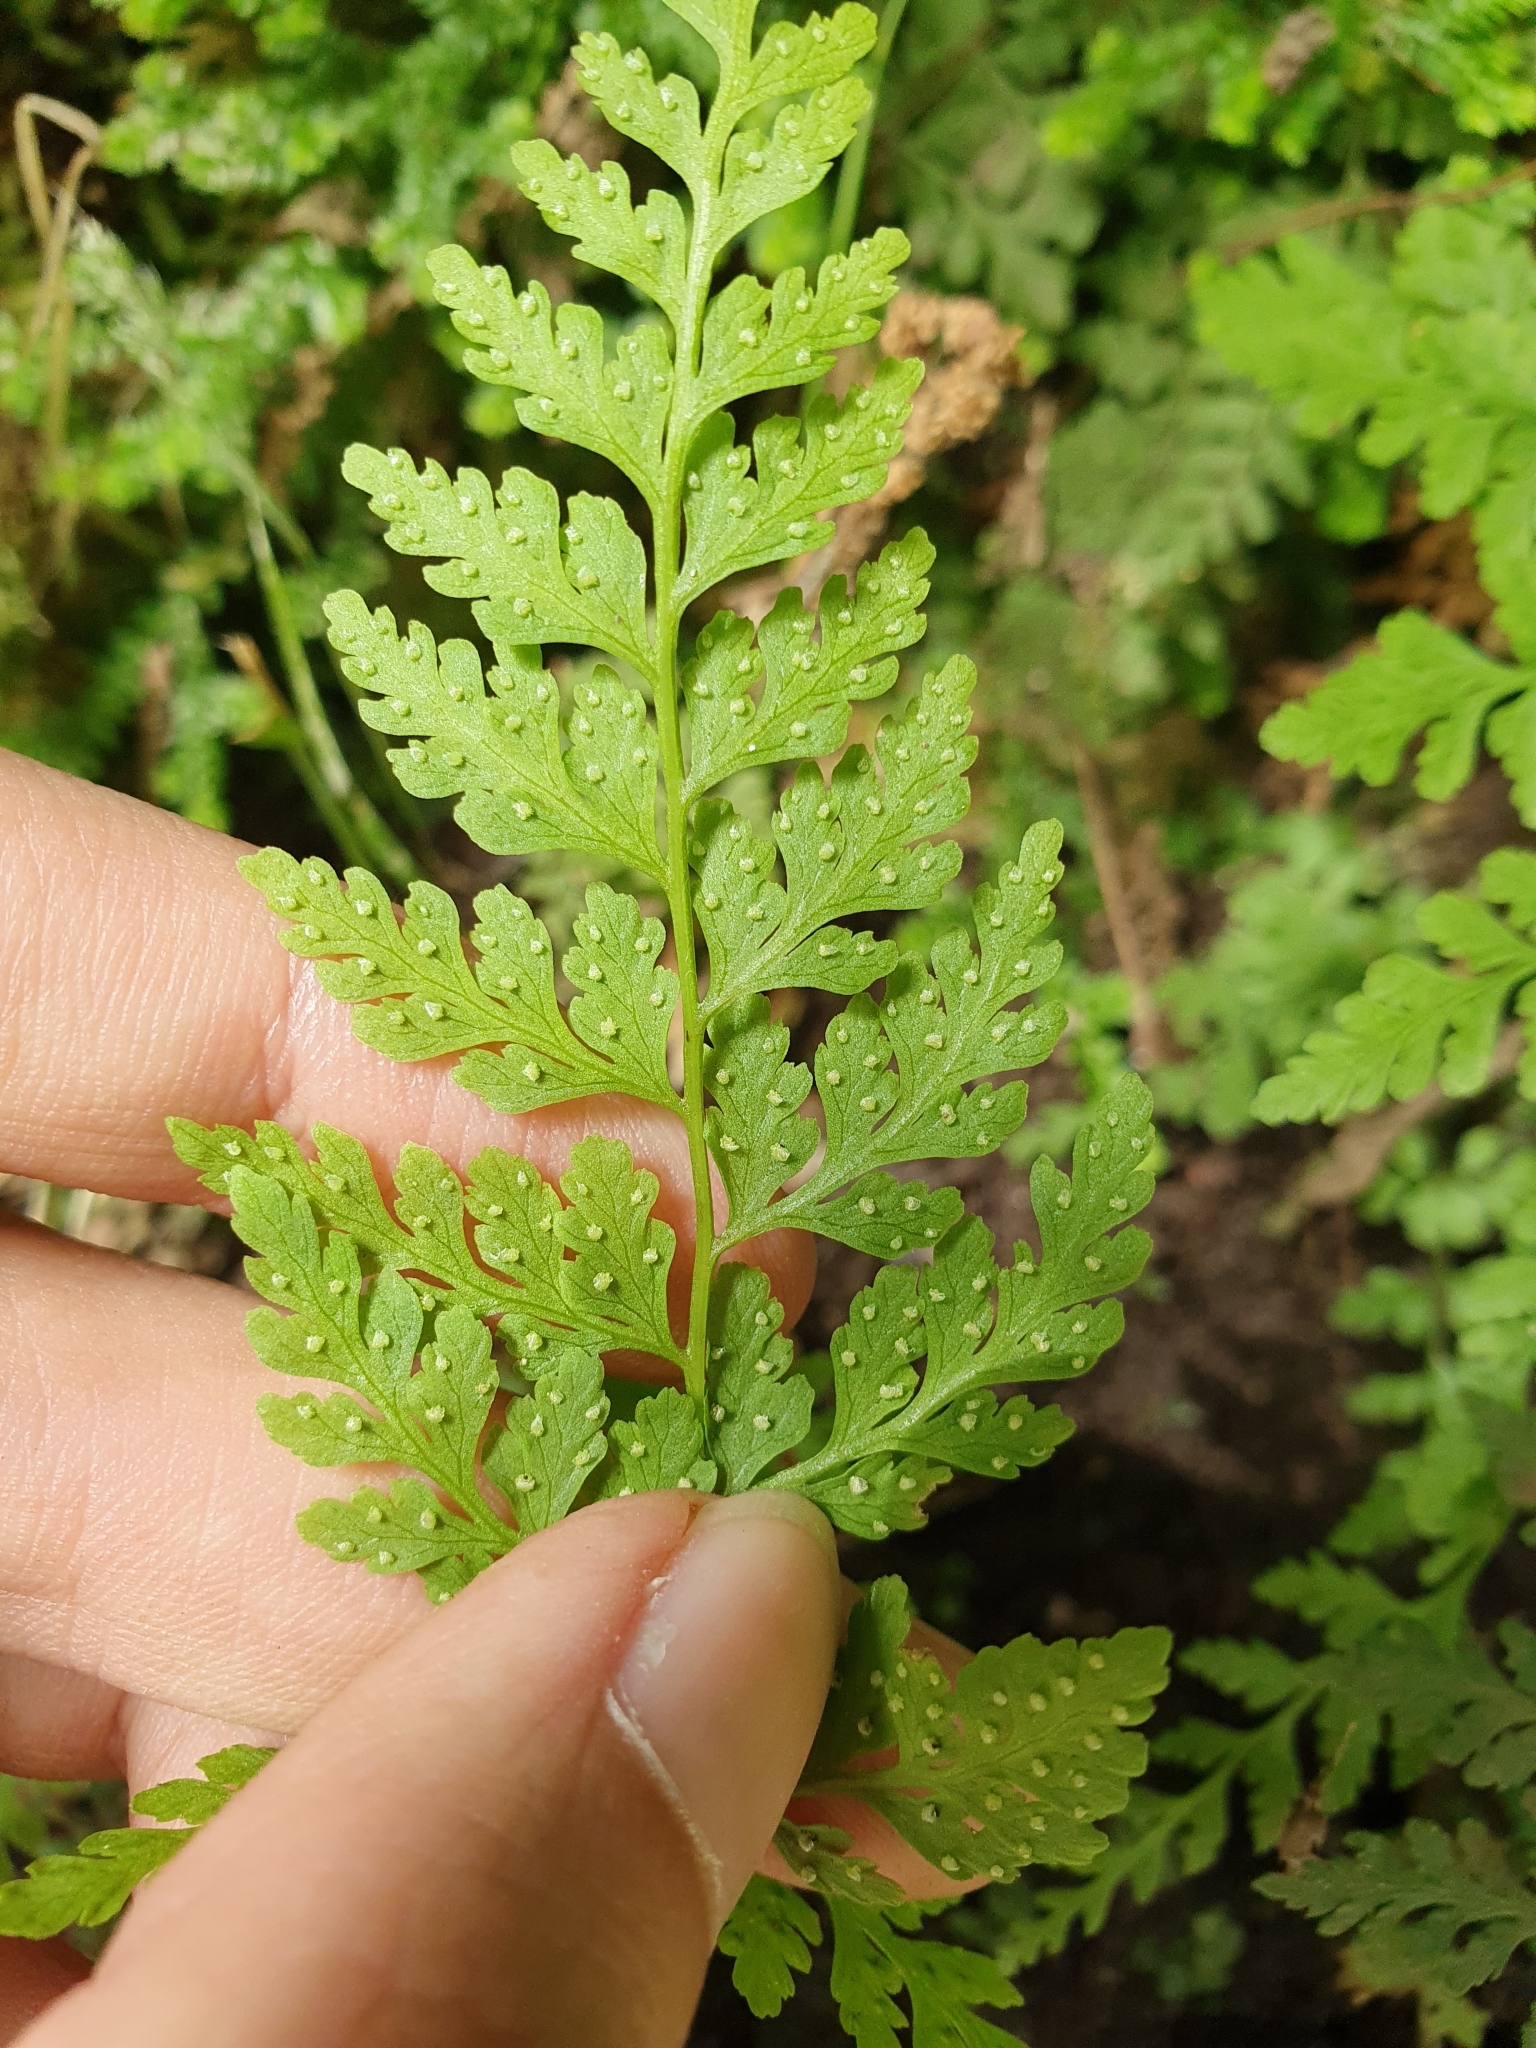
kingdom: Plantae
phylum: Tracheophyta
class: Polypodiopsida
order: Polypodiales
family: Cystopteridaceae
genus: Cystopteris
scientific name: Cystopteris diaphana
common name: Greenish bladder-fern
